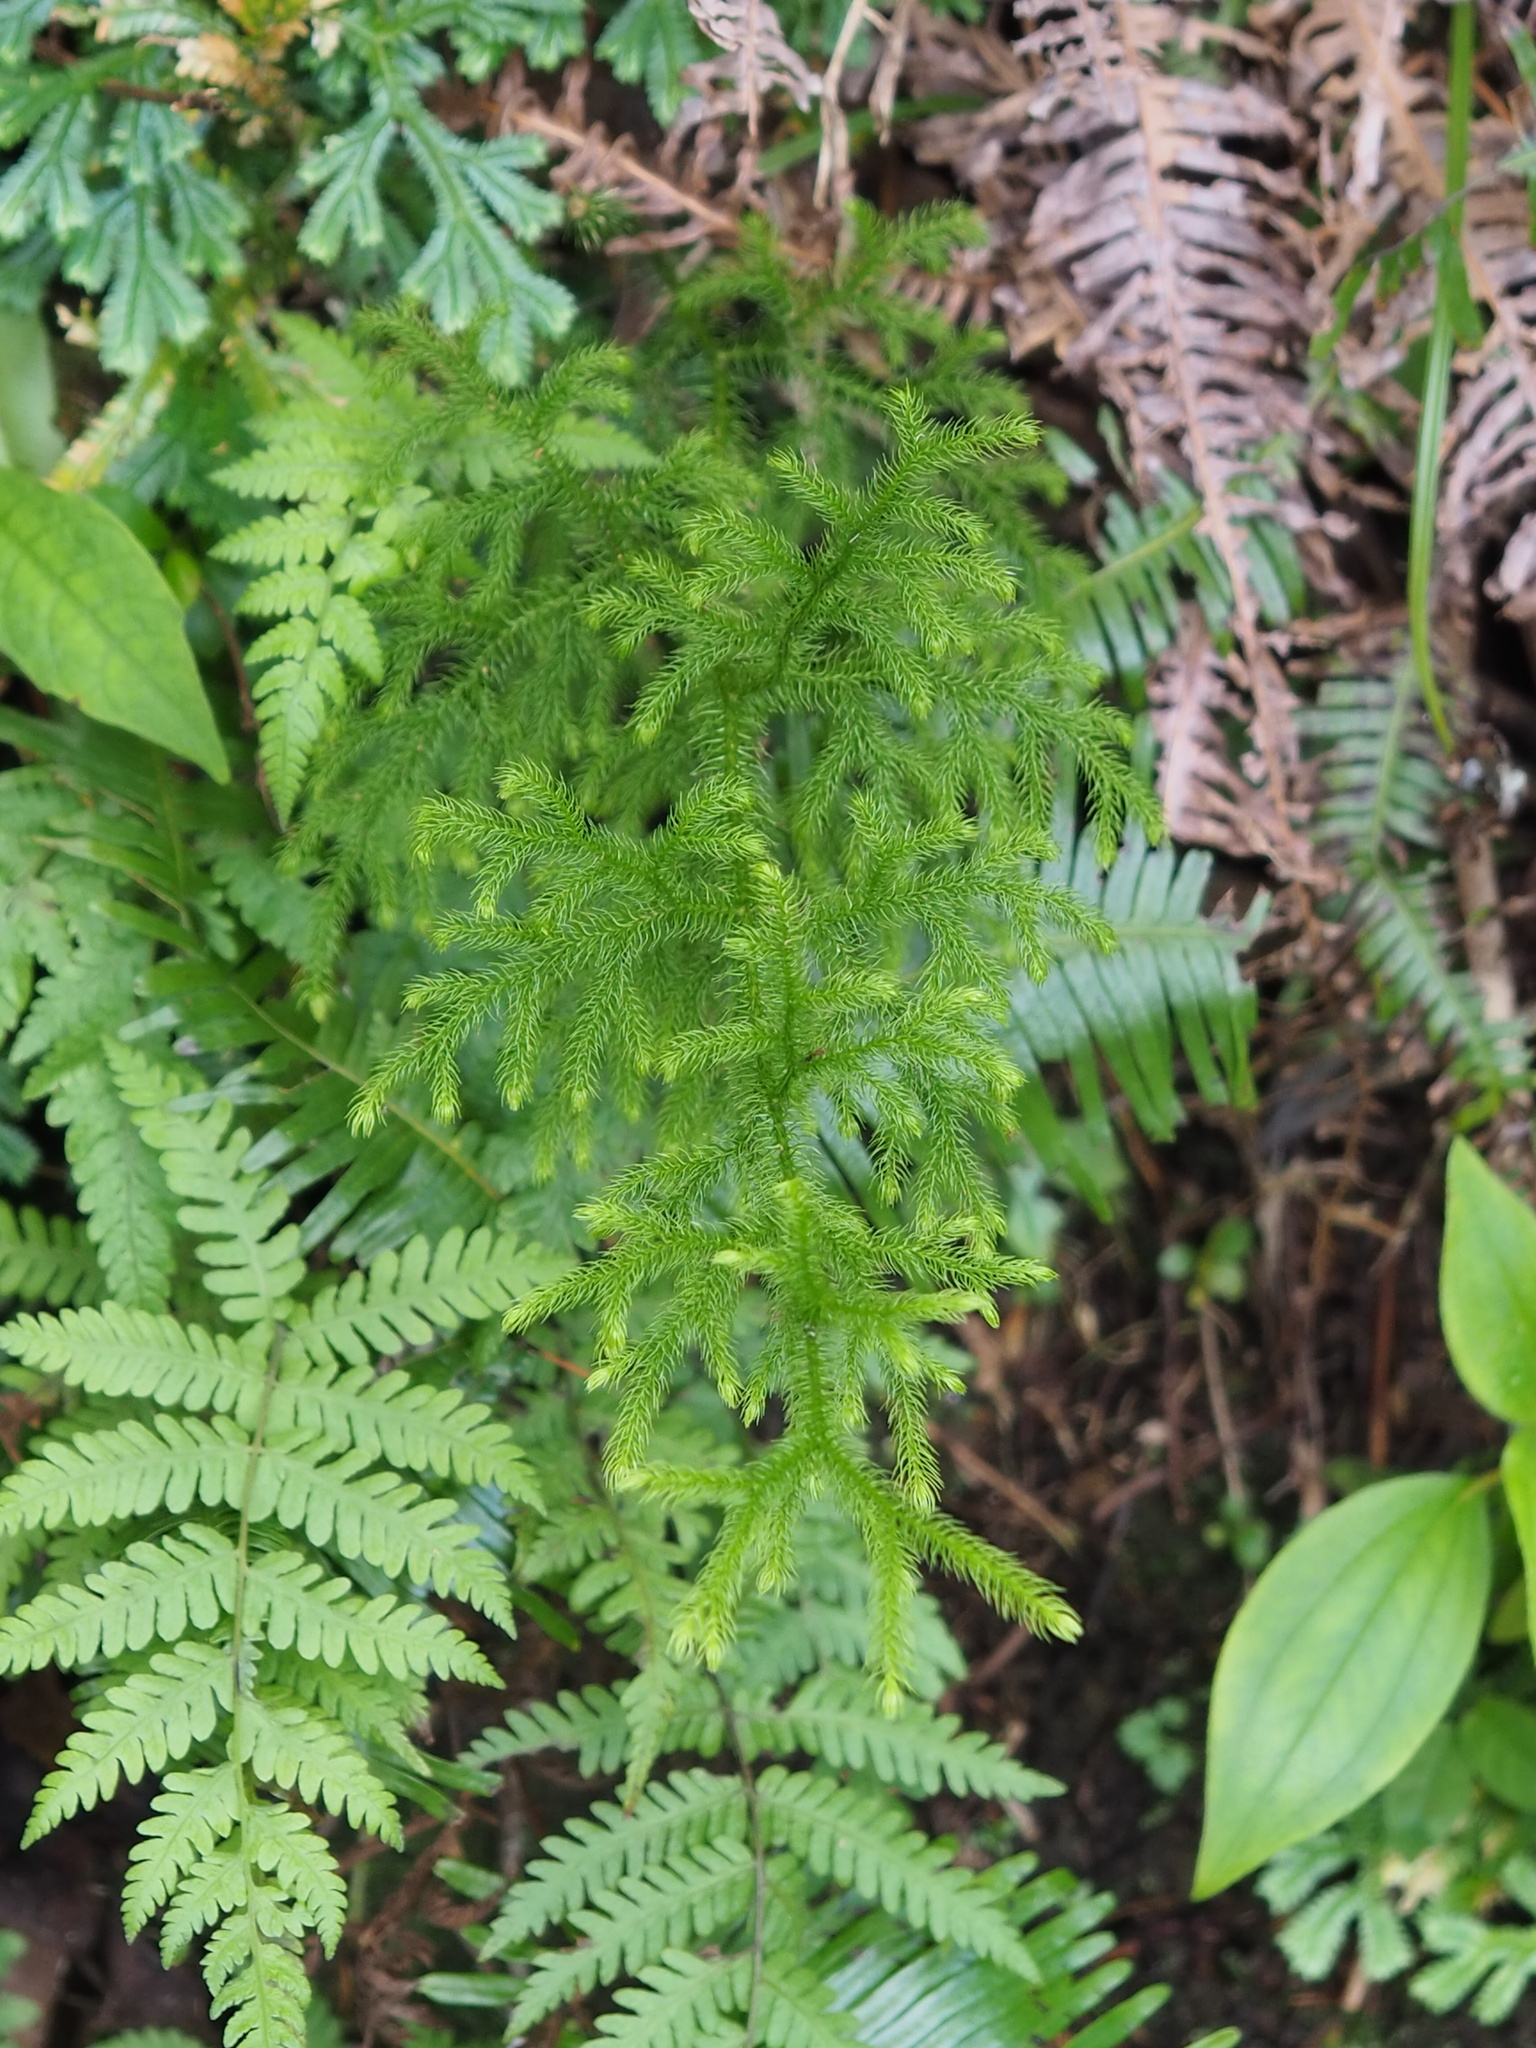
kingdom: Plantae
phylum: Tracheophyta
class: Lycopodiopsida
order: Lycopodiales
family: Lycopodiaceae
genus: Palhinhaea
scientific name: Palhinhaea cernua
